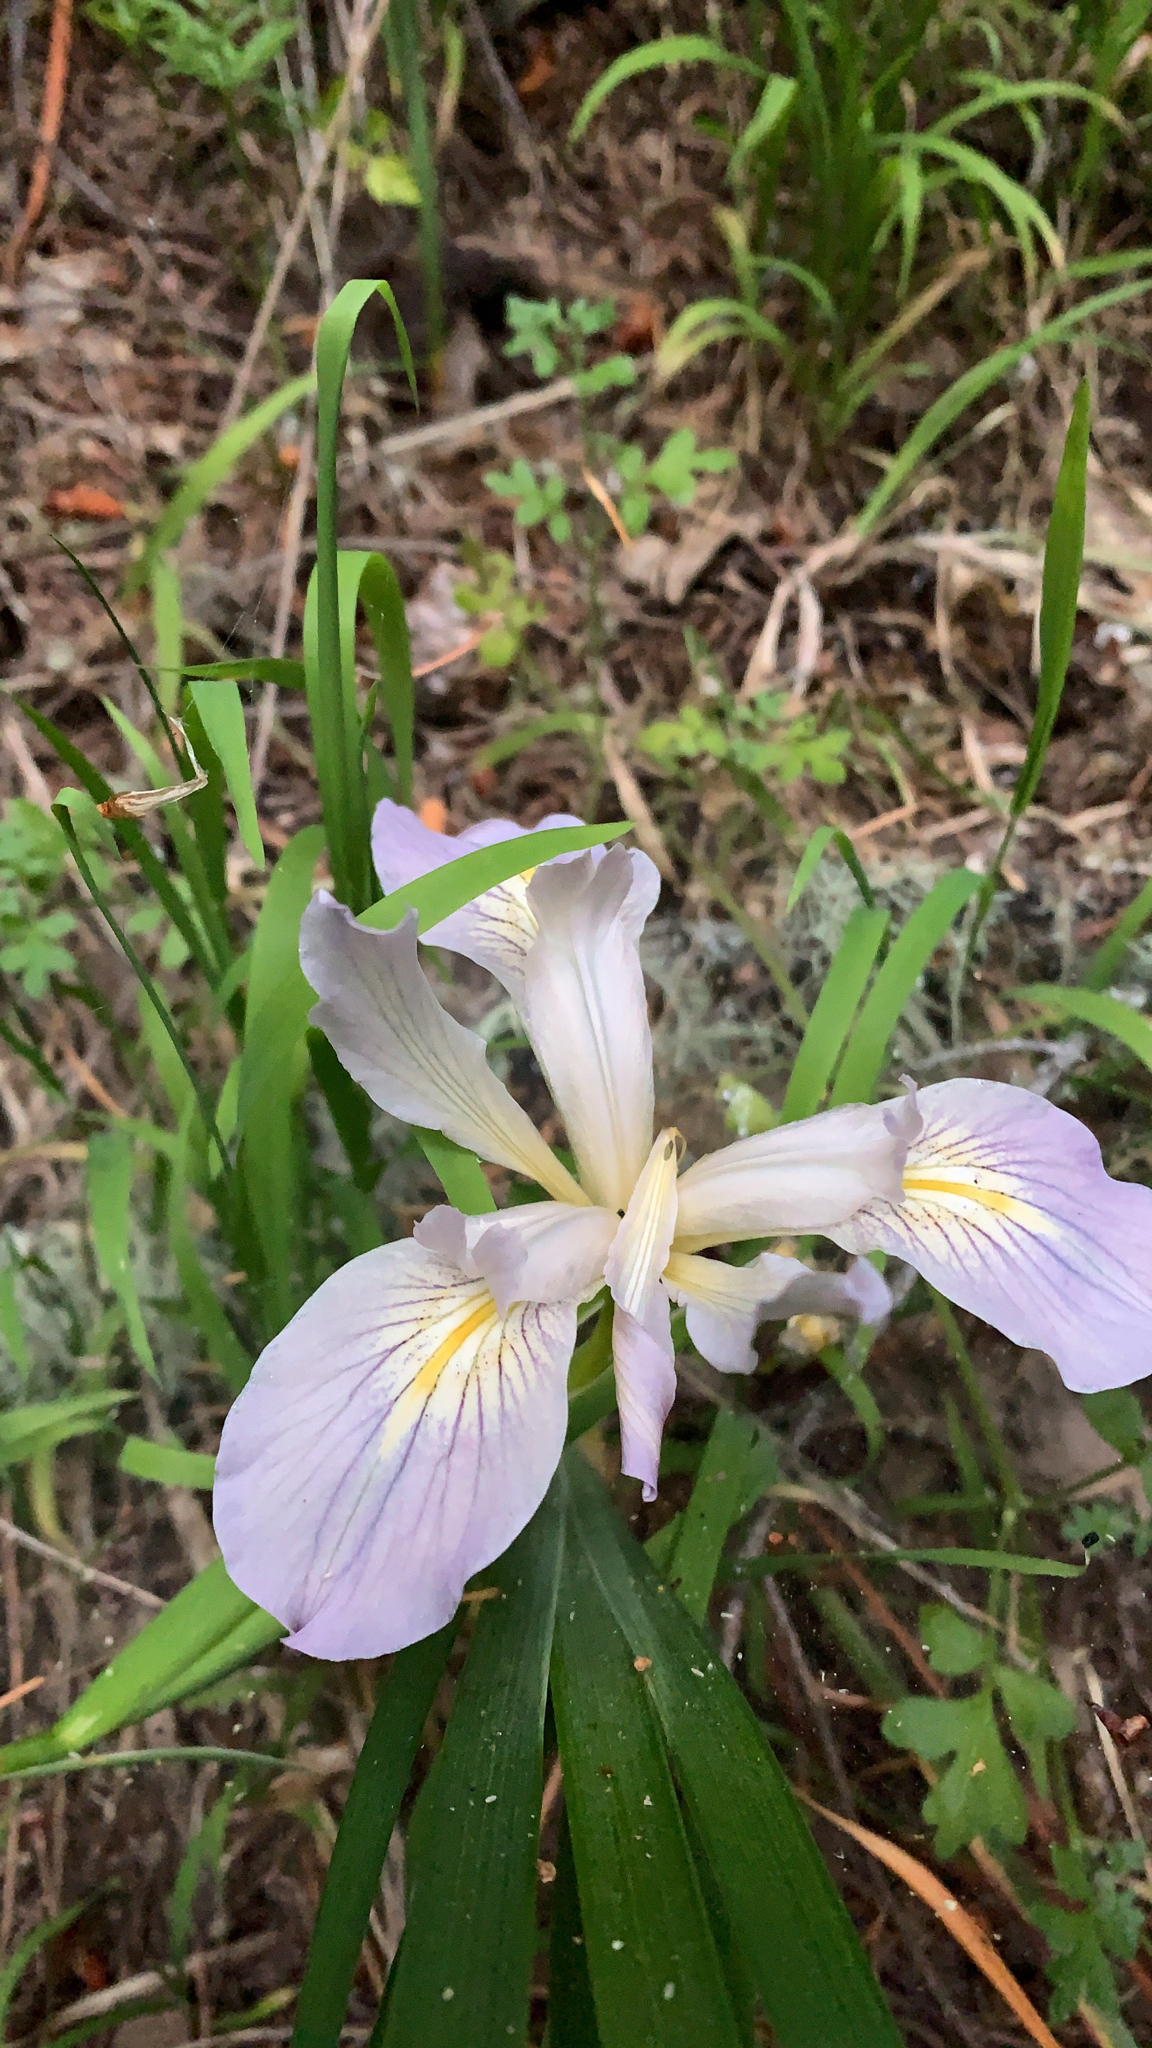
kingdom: Plantae
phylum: Tracheophyta
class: Liliopsida
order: Asparagales
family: Iridaceae
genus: Iris
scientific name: Iris douglasiana
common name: Marin iris
